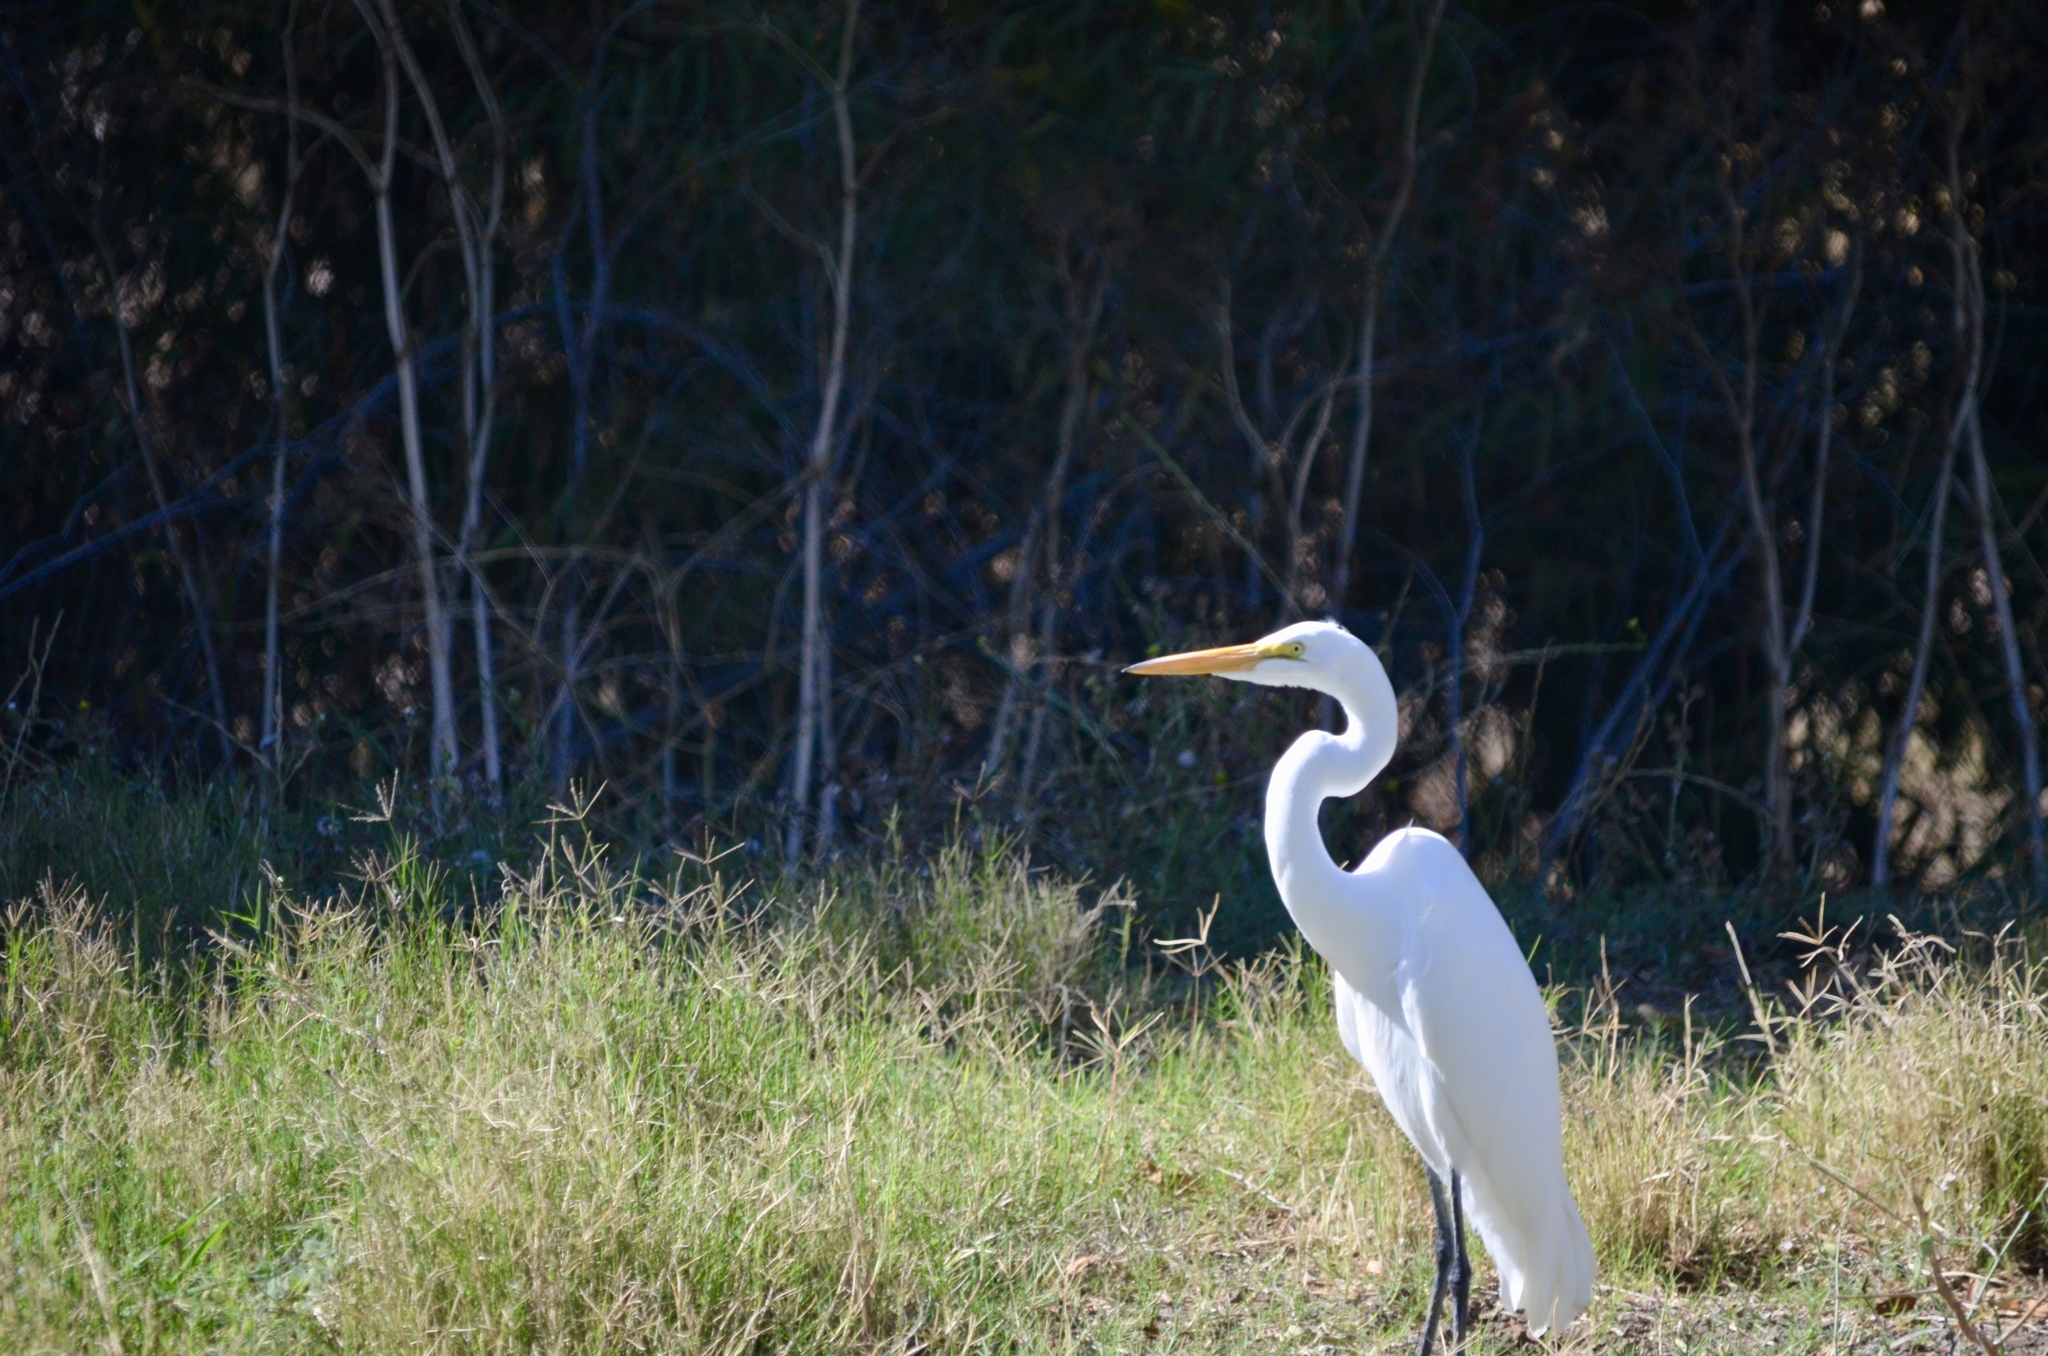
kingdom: Animalia
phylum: Chordata
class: Aves
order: Pelecaniformes
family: Ardeidae
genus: Ardea
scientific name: Ardea alba
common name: Great egret
